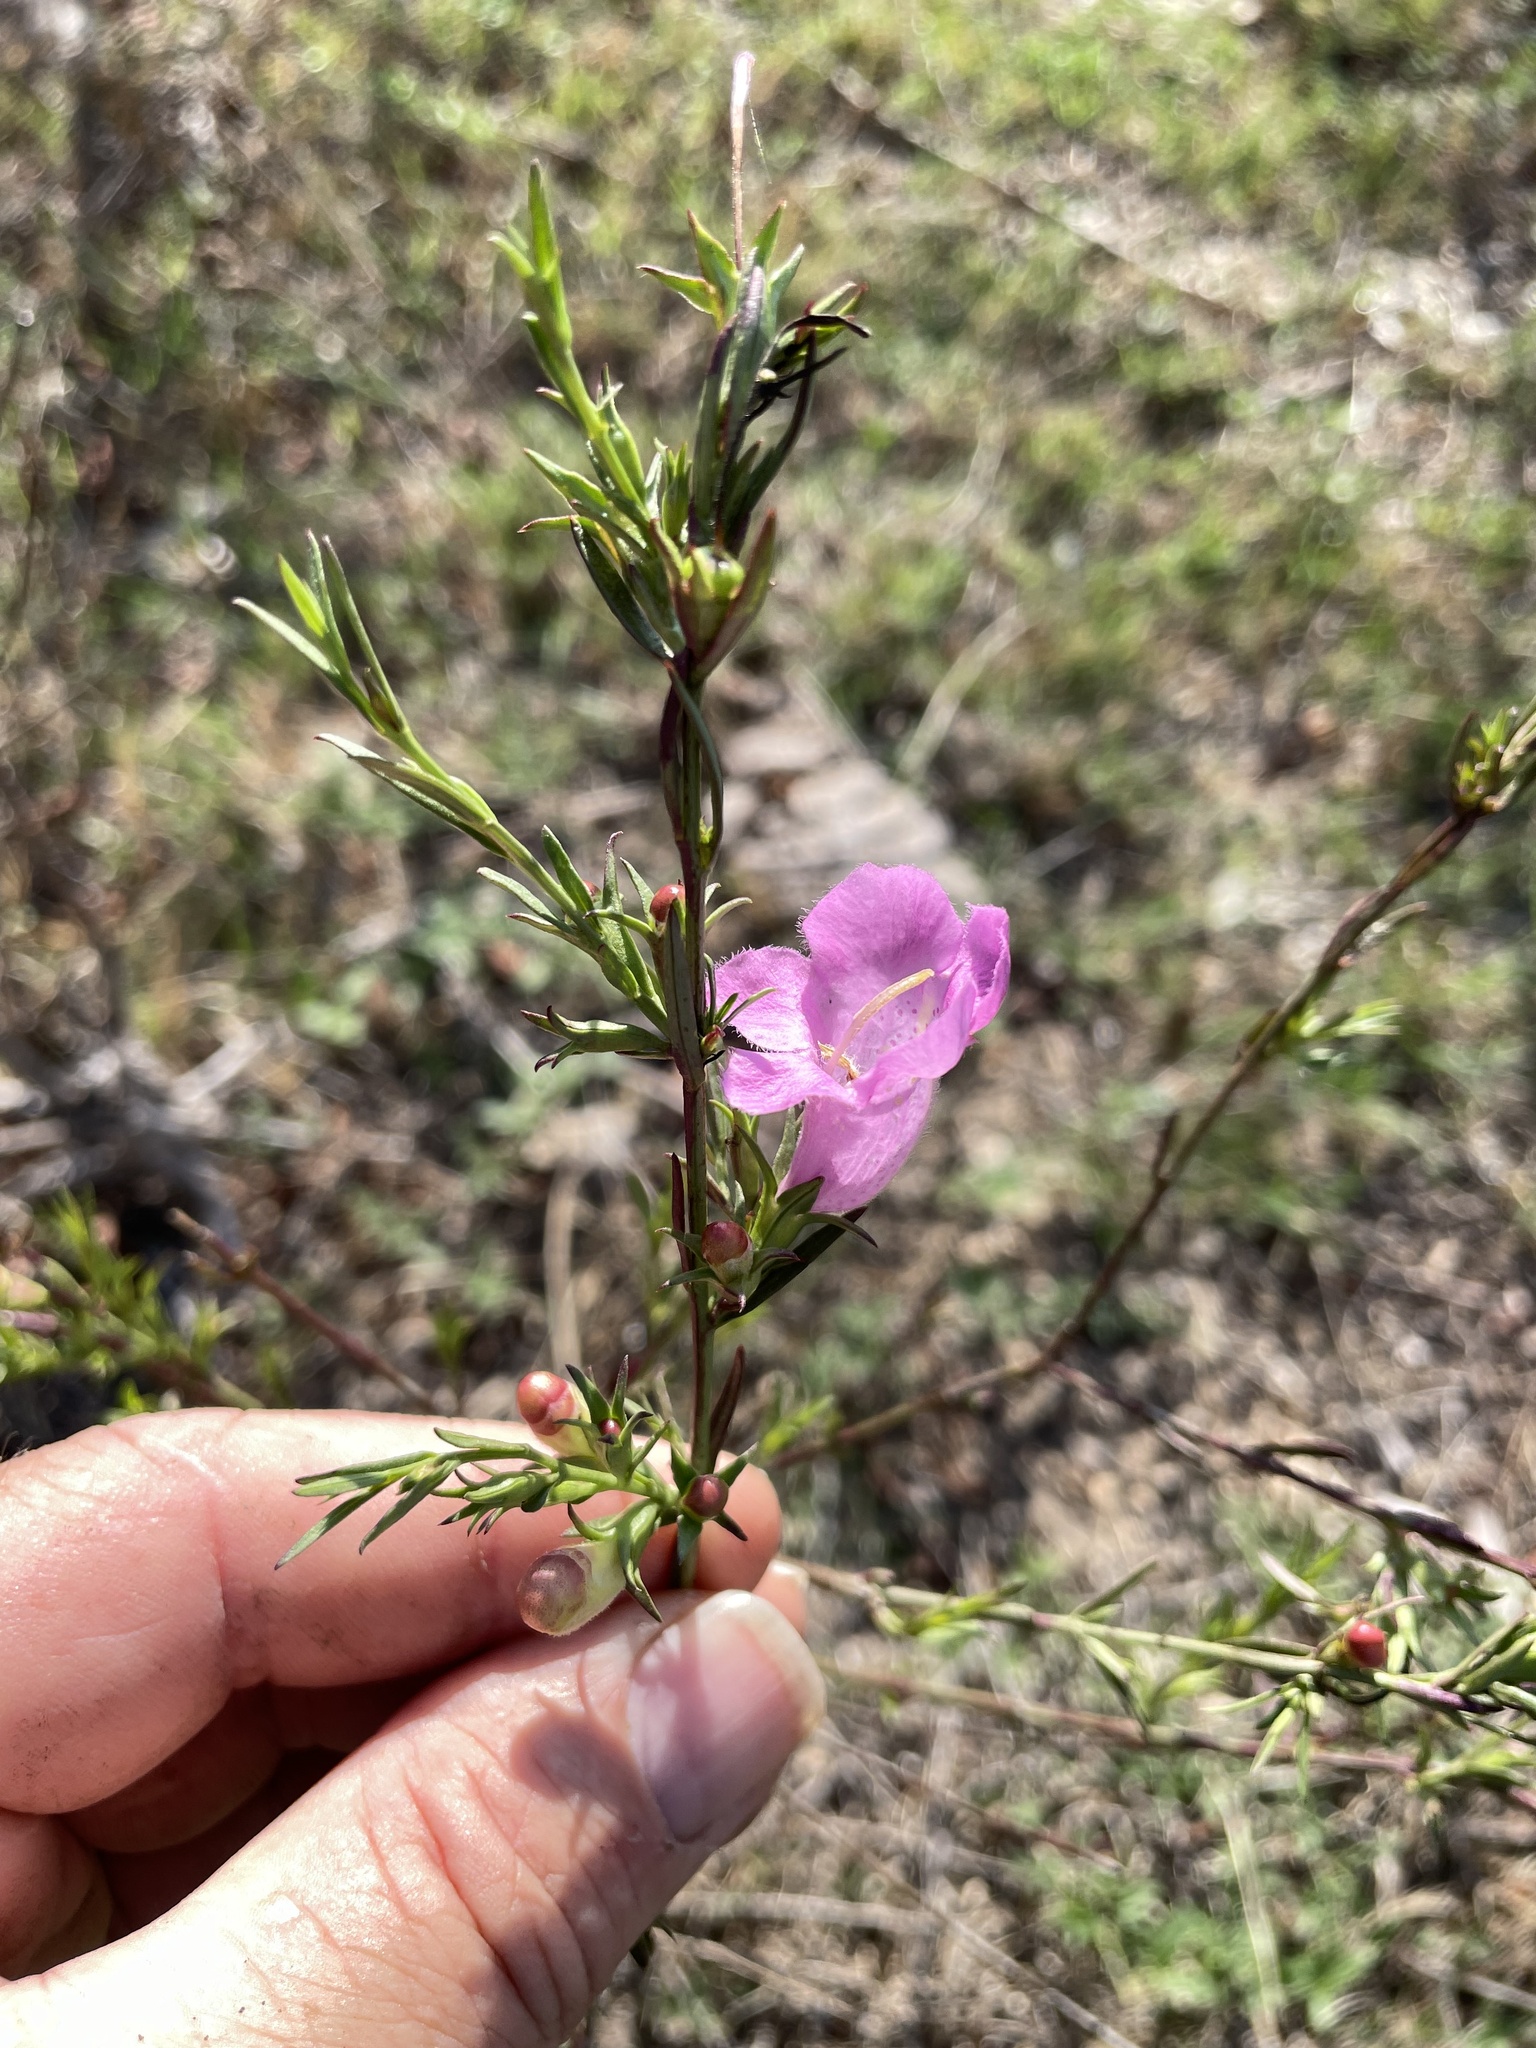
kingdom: Plantae
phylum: Tracheophyta
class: Magnoliopsida
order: Lamiales
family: Orobanchaceae
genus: Agalinis
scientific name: Agalinis heterophylla
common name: Prairie agalinis
